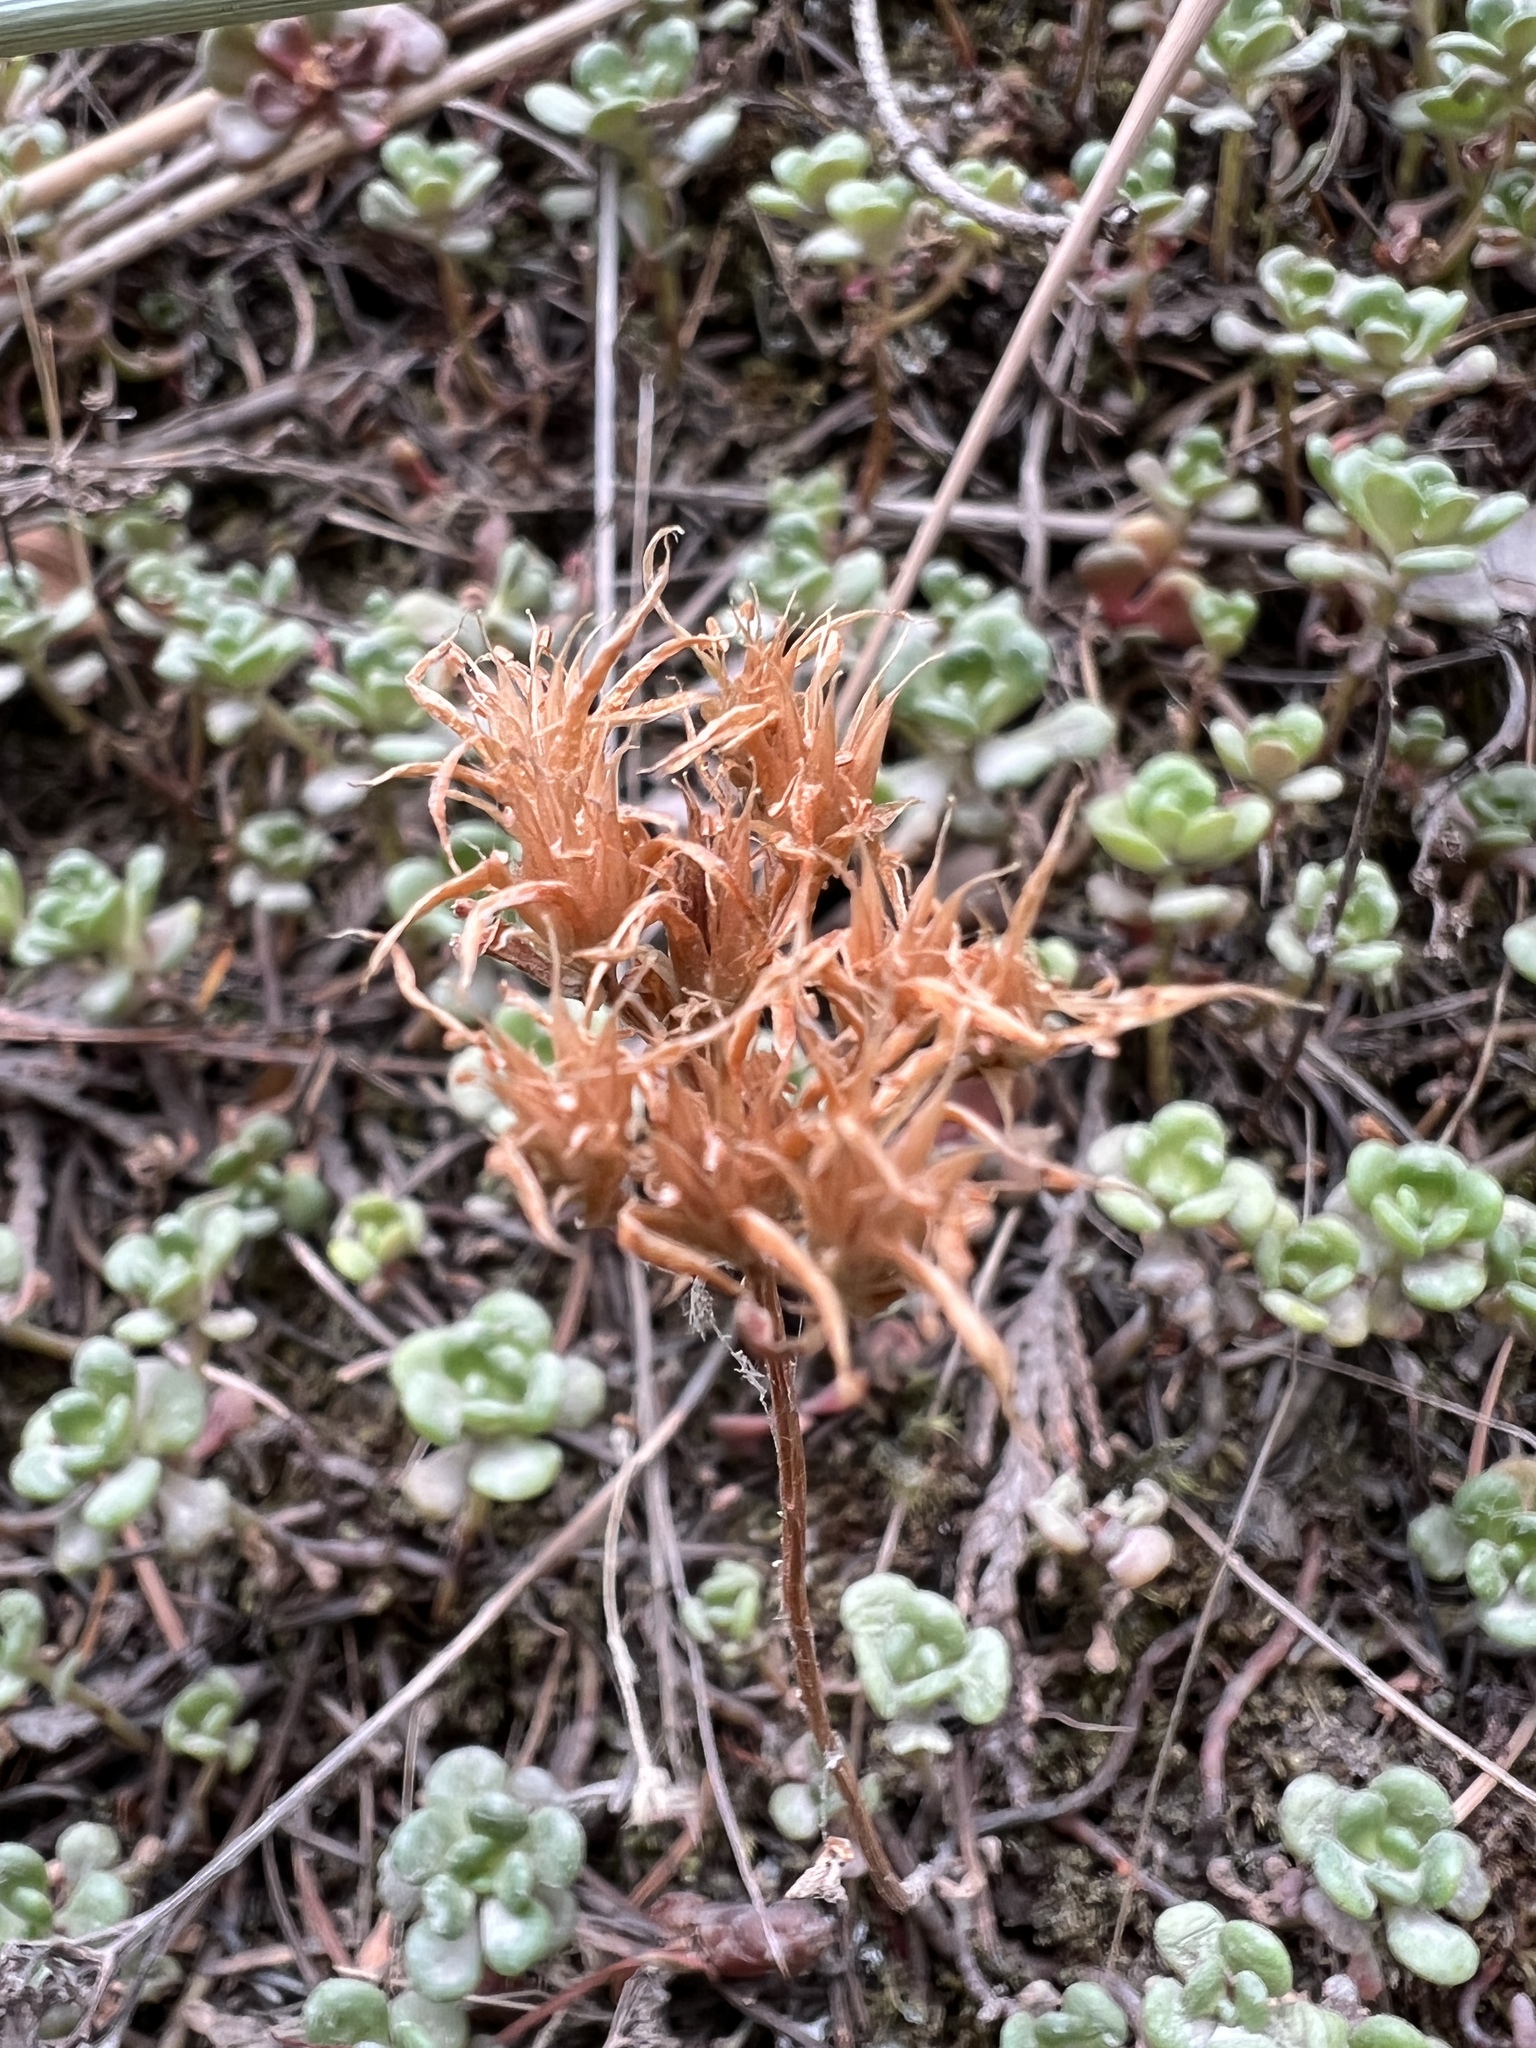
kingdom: Plantae
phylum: Tracheophyta
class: Magnoliopsida
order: Saxifragales
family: Crassulaceae
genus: Sedum
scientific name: Sedum oreganum
